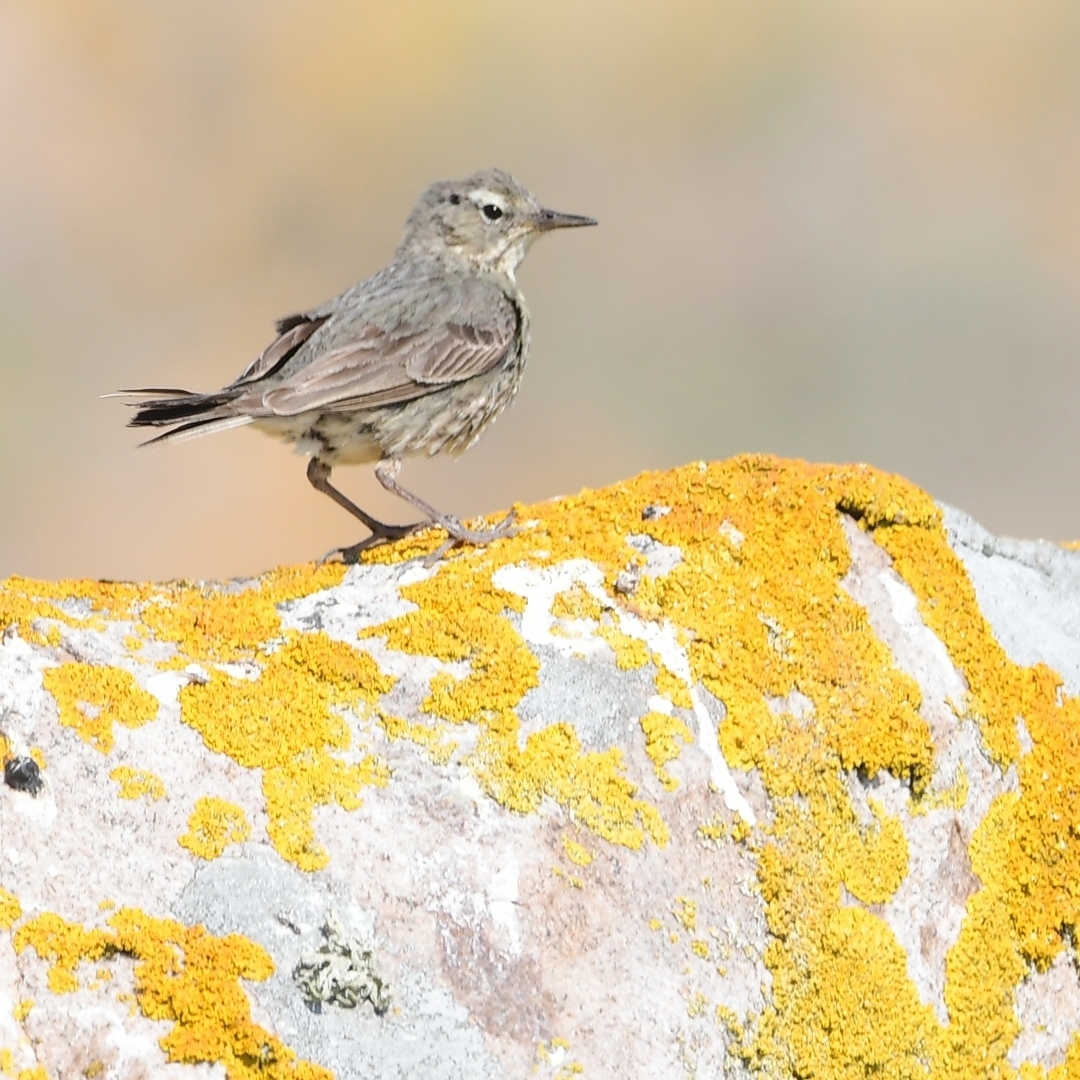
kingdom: Animalia
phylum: Chordata
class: Aves
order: Passeriformes
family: Motacillidae
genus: Anthus
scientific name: Anthus petrosus
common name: Eurasian rock pipit
